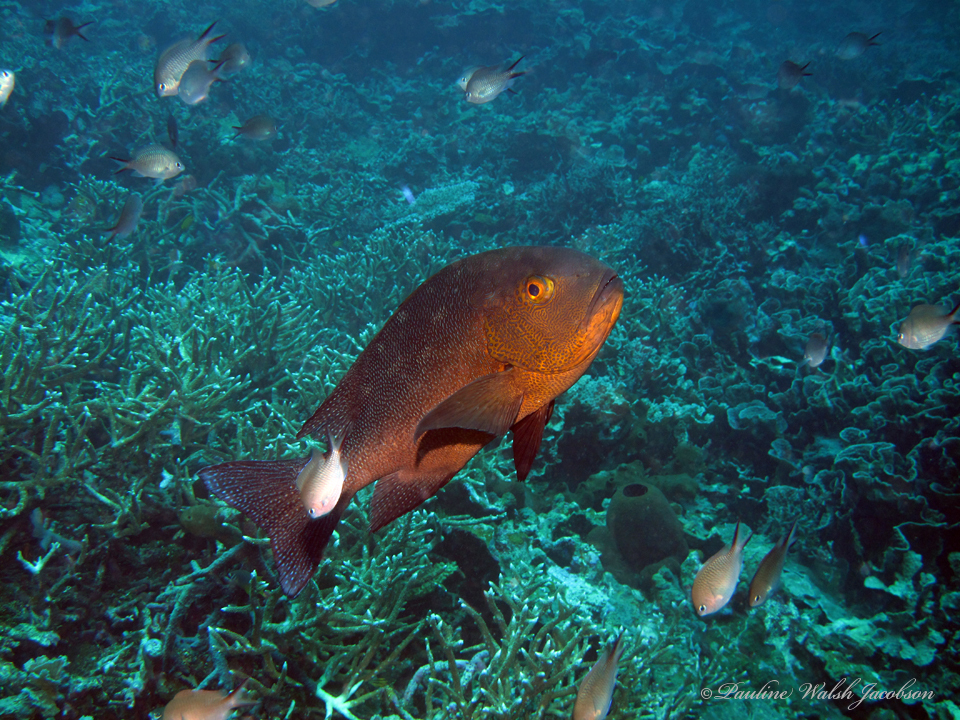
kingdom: Animalia
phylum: Chordata
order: Perciformes
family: Lutjanidae
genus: Macolor
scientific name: Macolor macularis
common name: Midnight snapper
